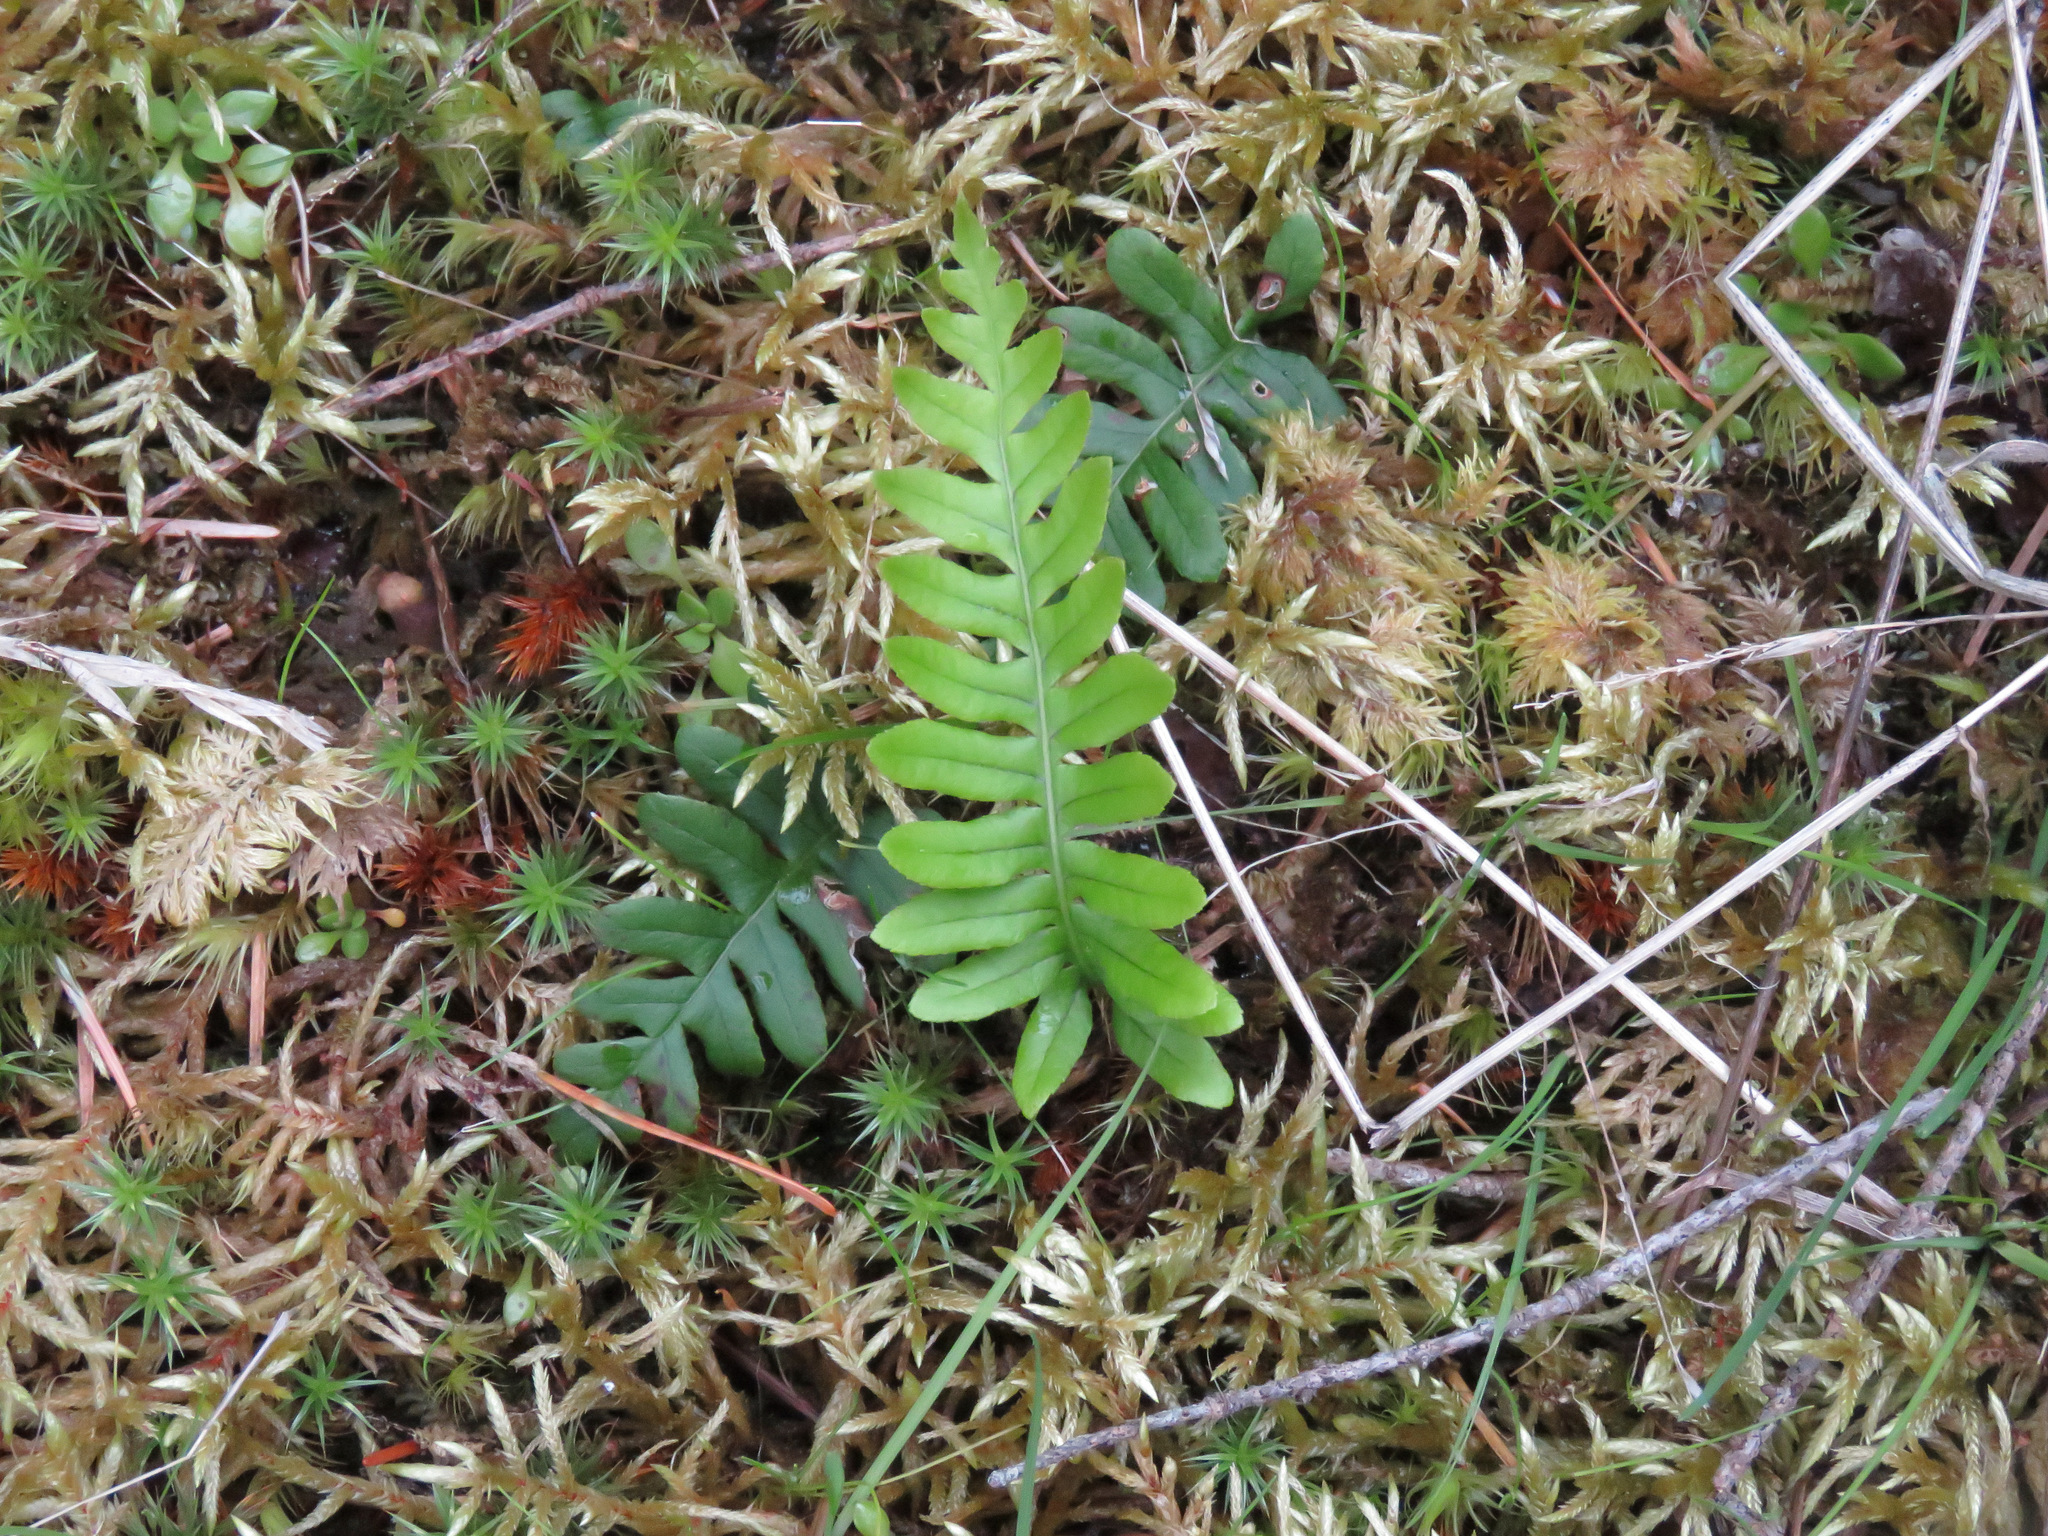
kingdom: Plantae
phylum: Tracheophyta
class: Polypodiopsida
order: Polypodiales
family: Polypodiaceae
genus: Polypodium
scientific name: Polypodium glycyrrhiza
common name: Licorice fern
